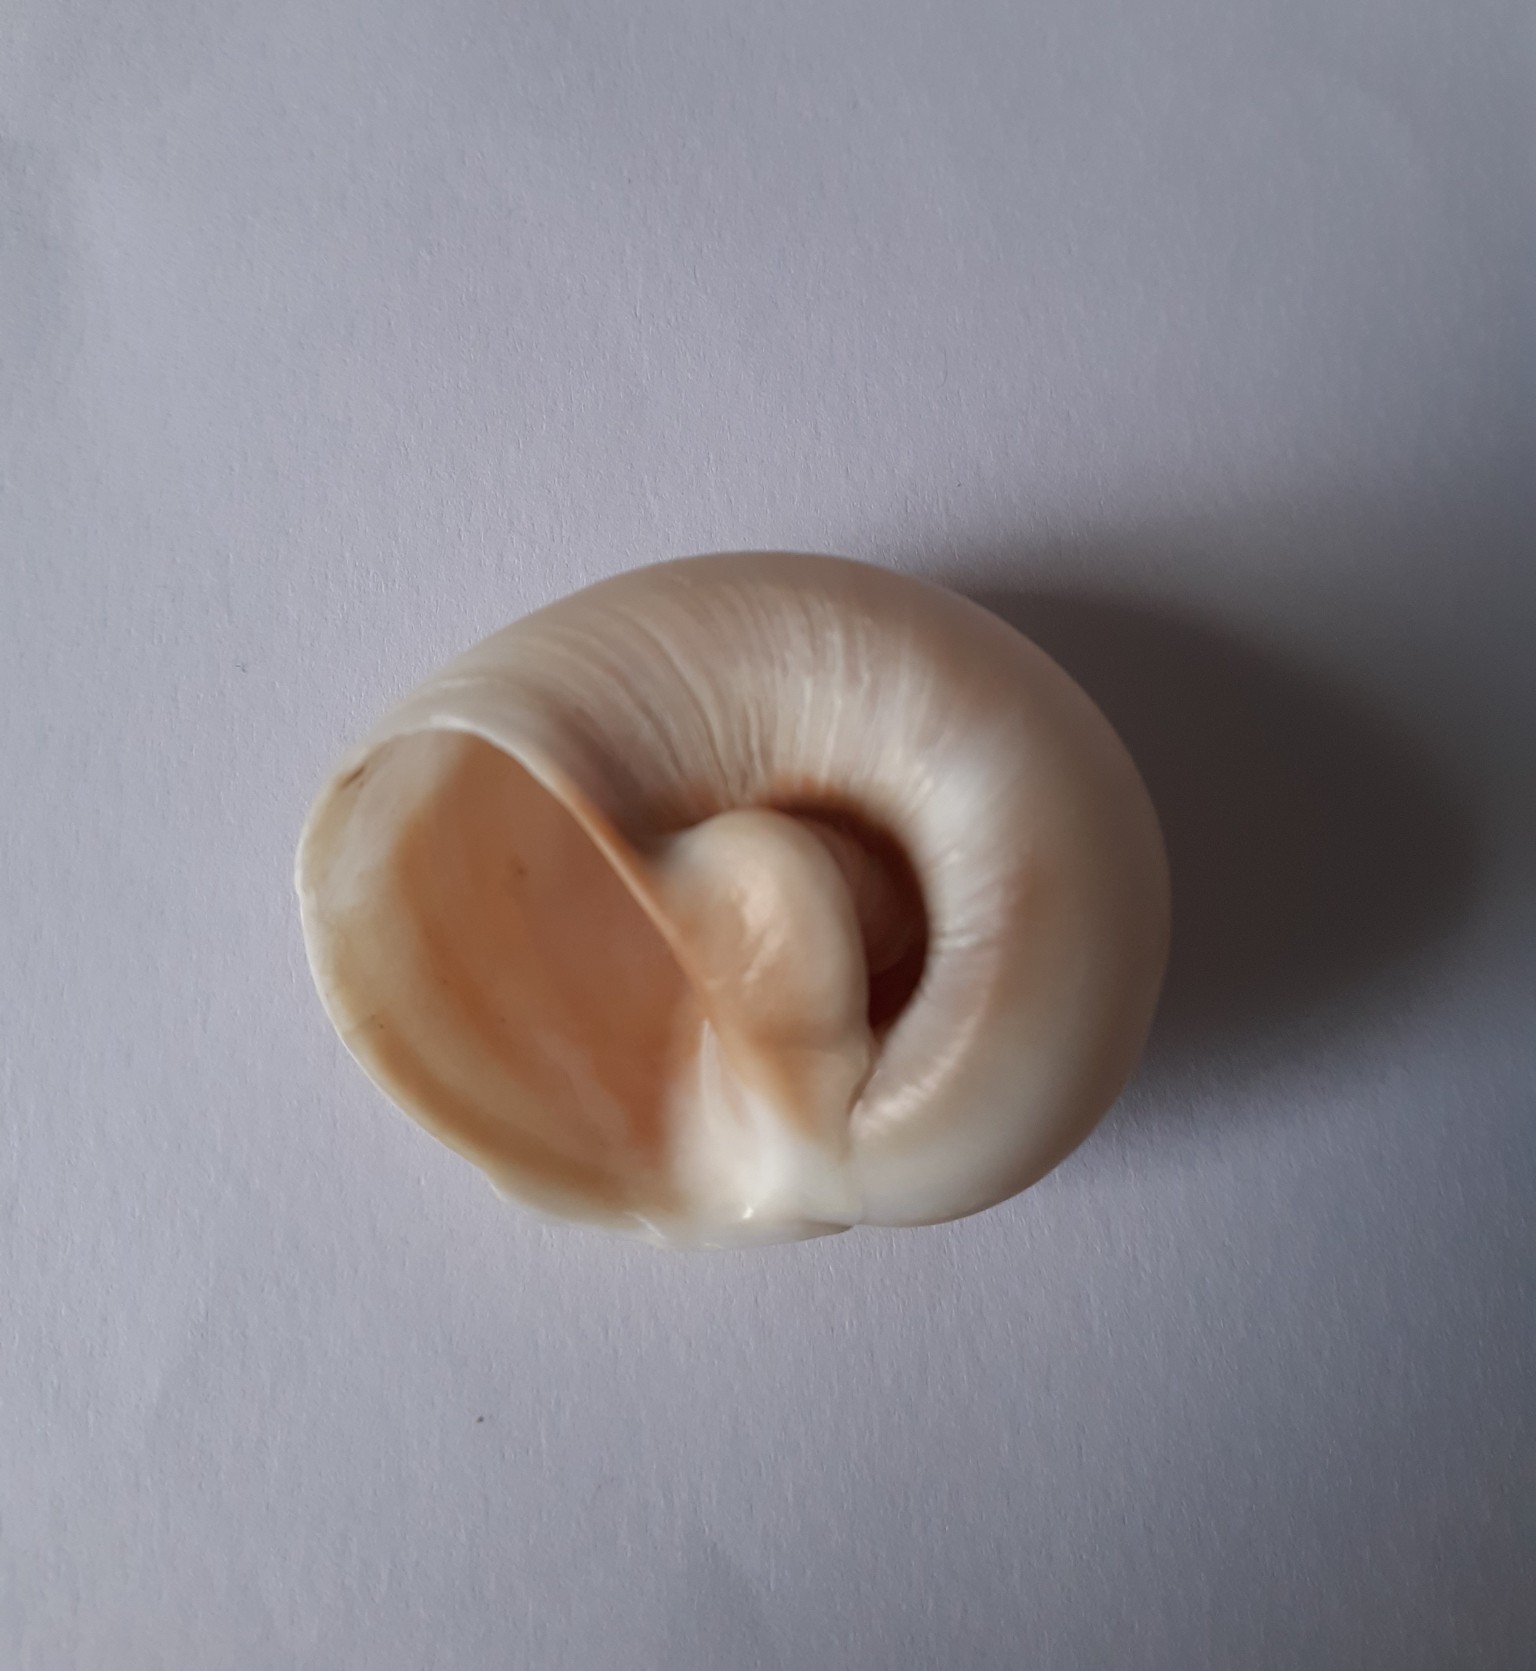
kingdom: Animalia
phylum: Mollusca
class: Gastropoda
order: Littorinimorpha
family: Naticidae
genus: Neverita
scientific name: Neverita josephinia
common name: Josephine's moonsnail
